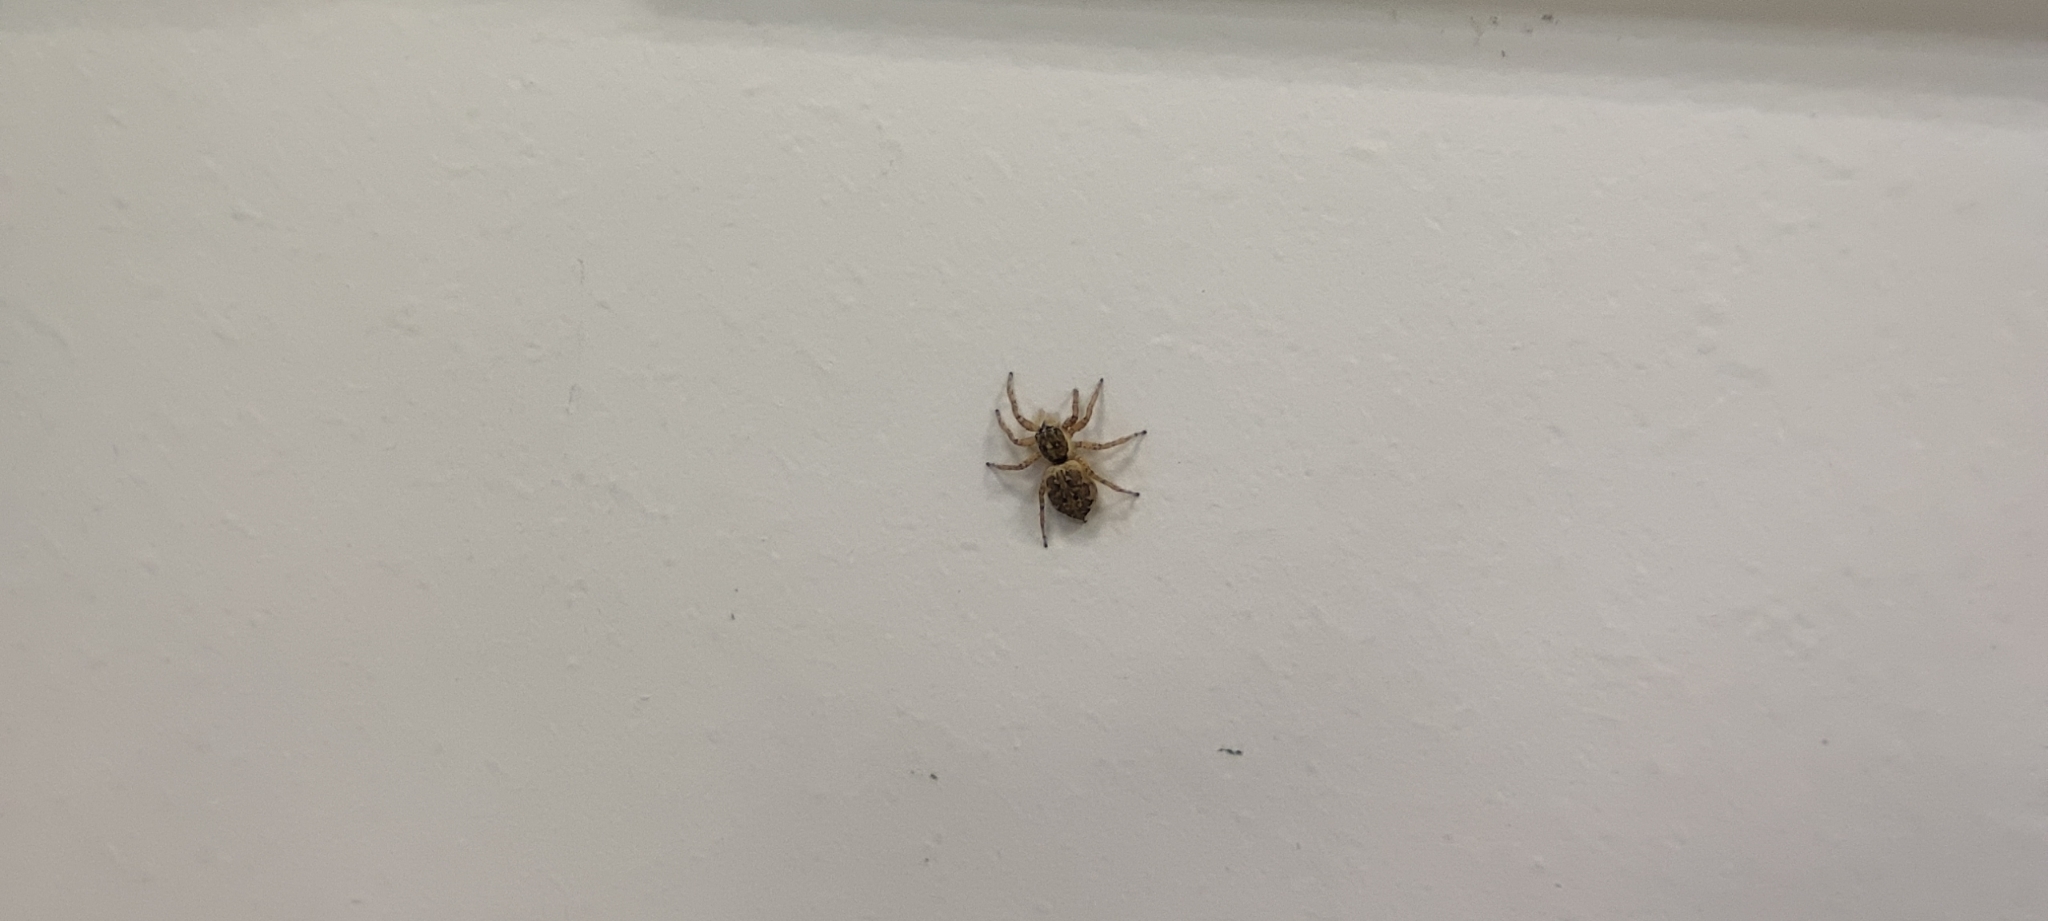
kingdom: Animalia
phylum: Arthropoda
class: Arachnida
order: Araneae
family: Salticidae
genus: Menemerus
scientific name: Menemerus semilimbatus
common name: Jumping spider
